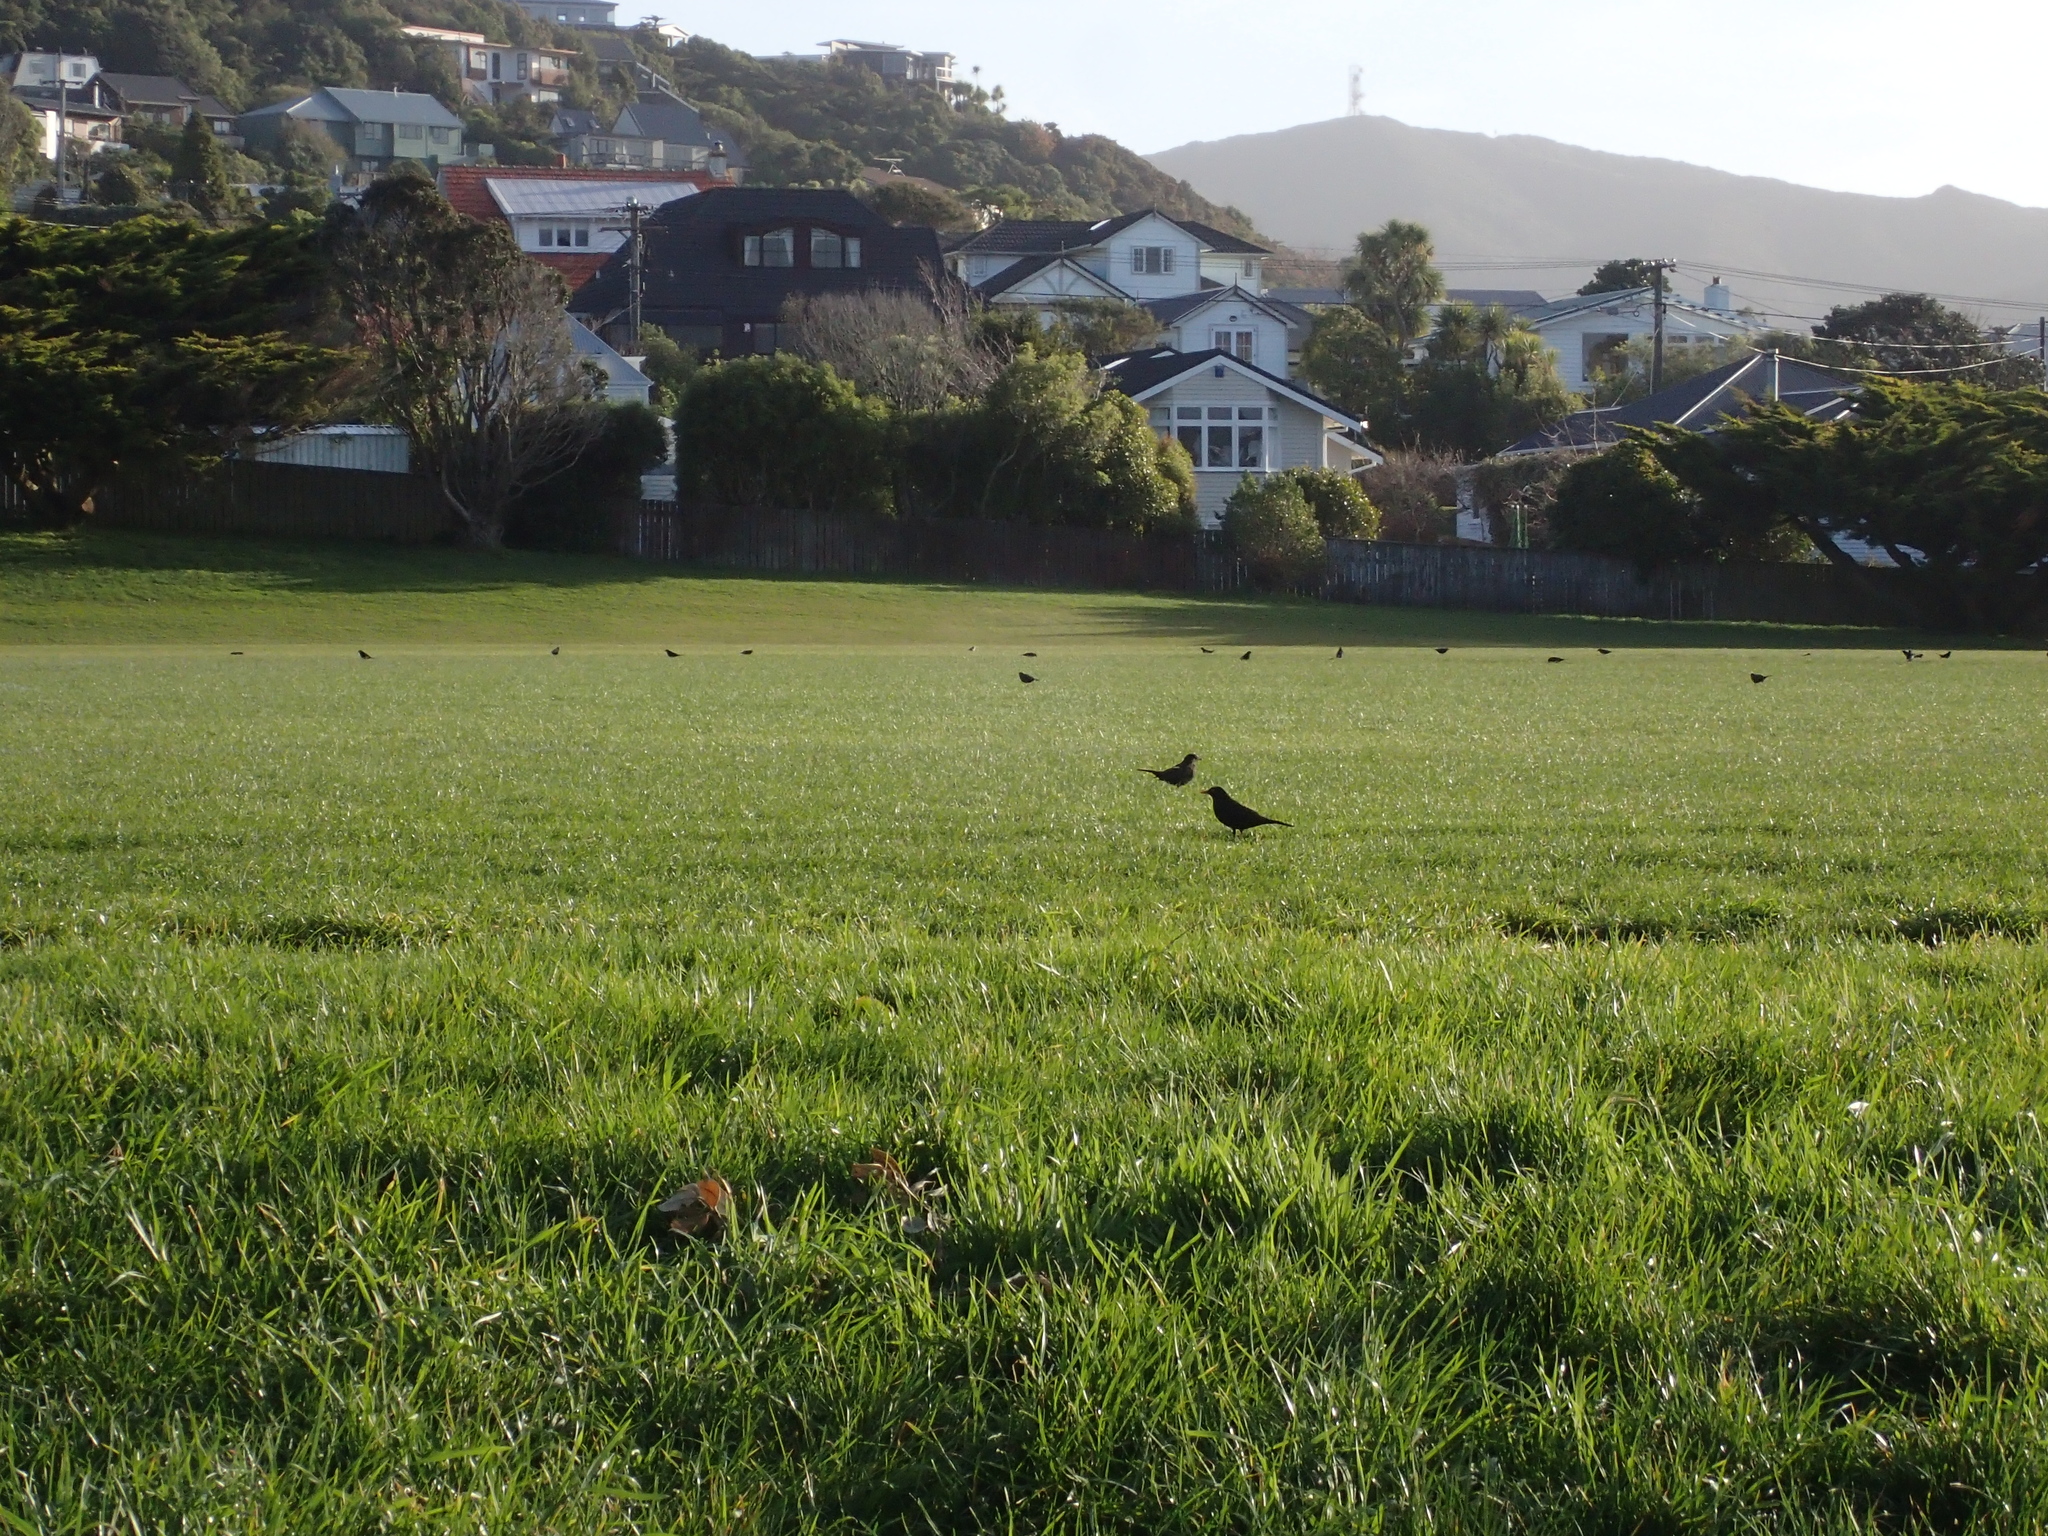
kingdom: Animalia
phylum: Chordata
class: Aves
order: Passeriformes
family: Turdidae
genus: Turdus
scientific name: Turdus merula
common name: Common blackbird
